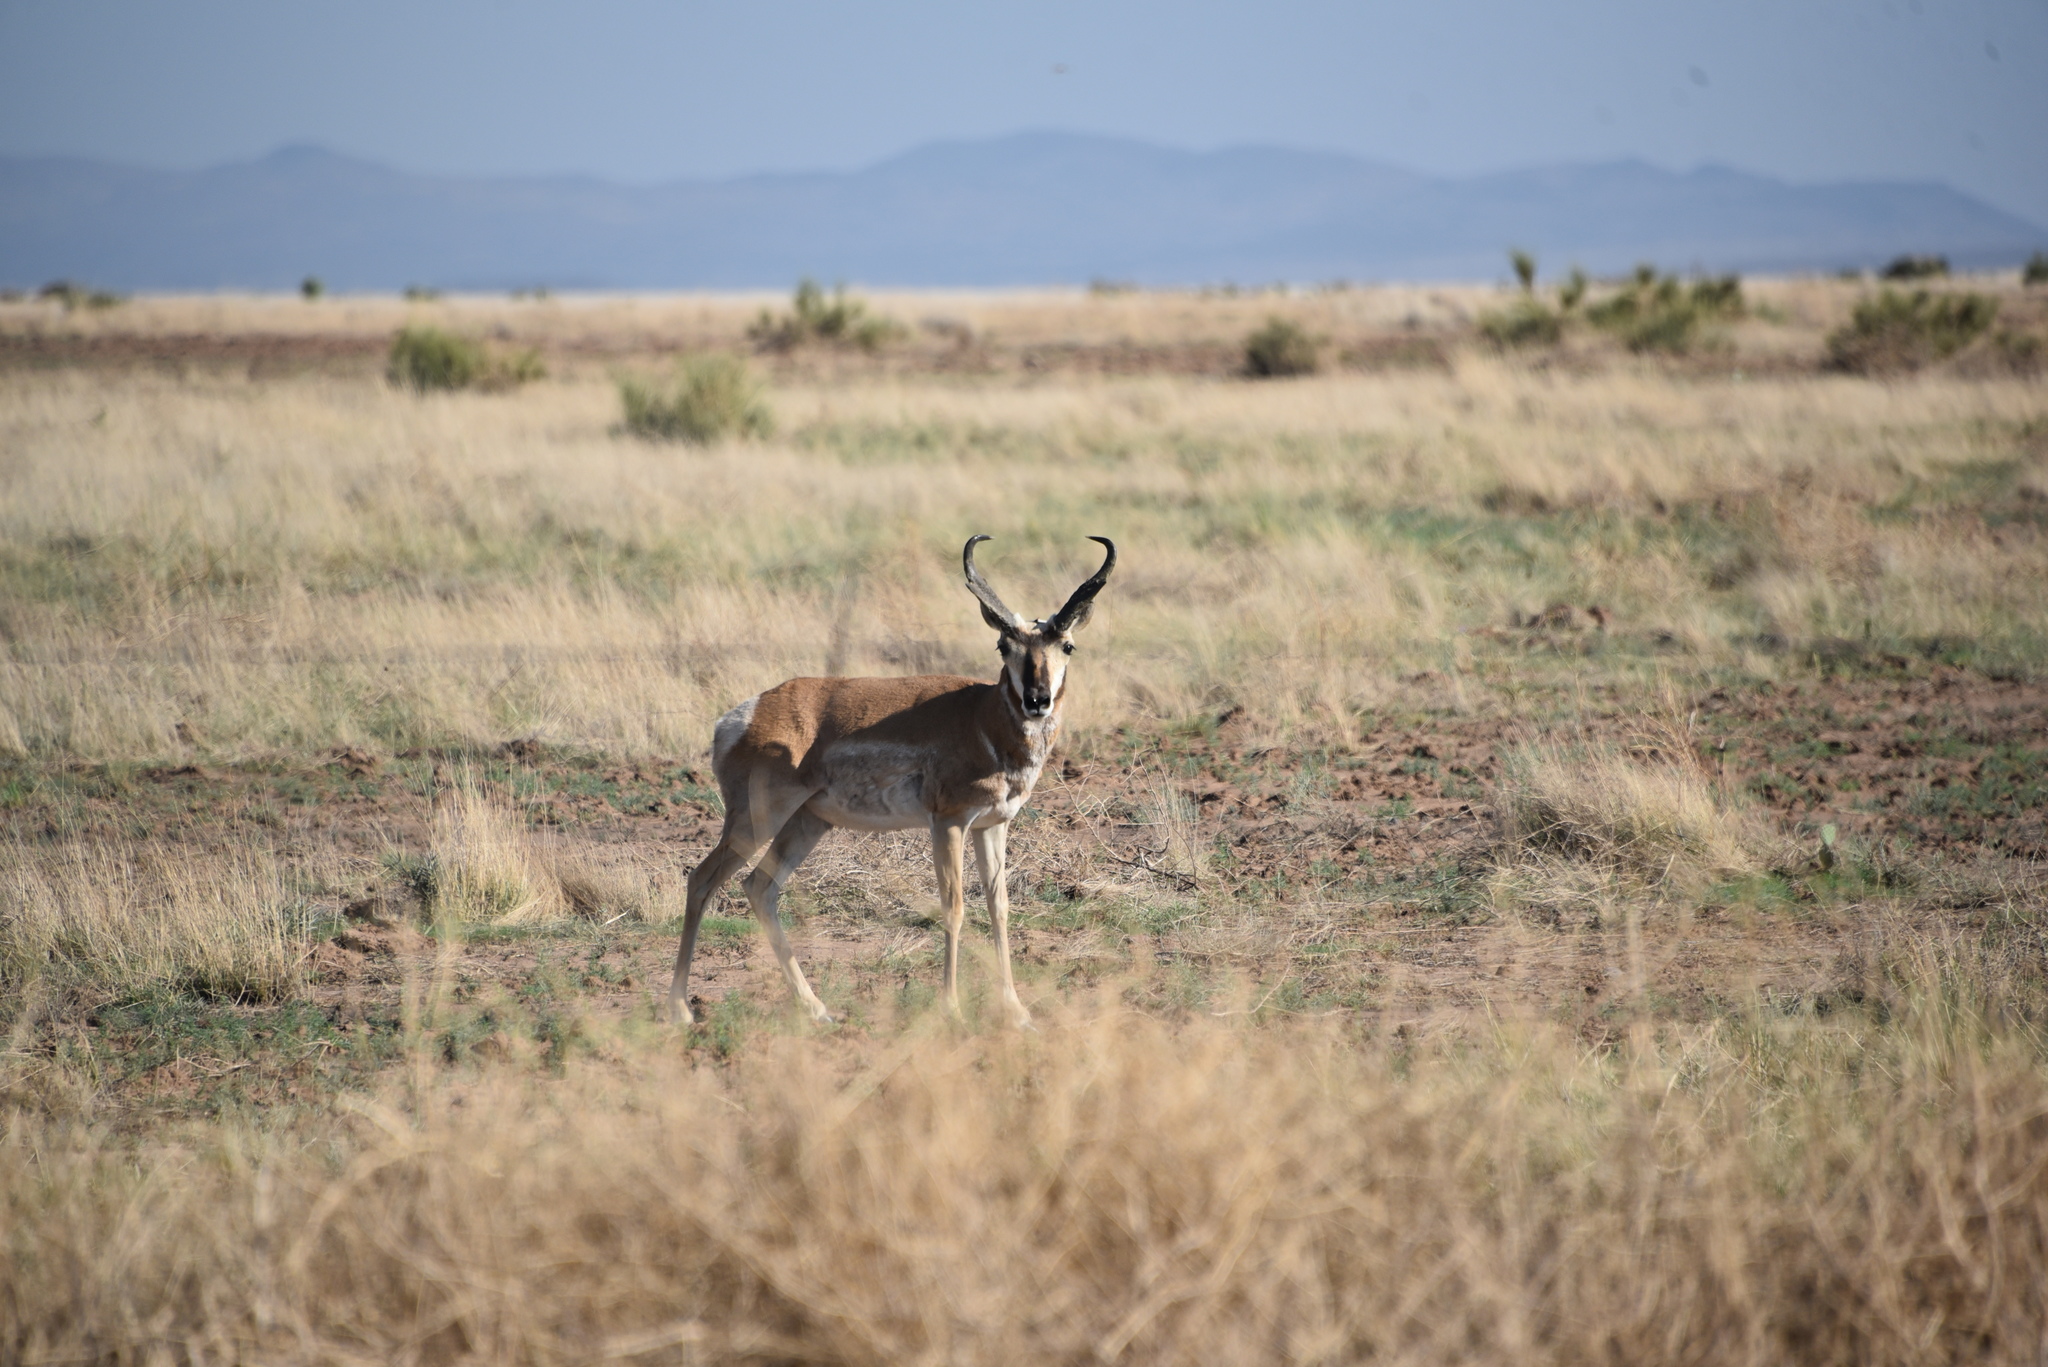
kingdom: Animalia
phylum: Chordata
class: Mammalia
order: Artiodactyla
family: Antilocapridae
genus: Antilocapra
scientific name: Antilocapra americana
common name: Pronghorn
